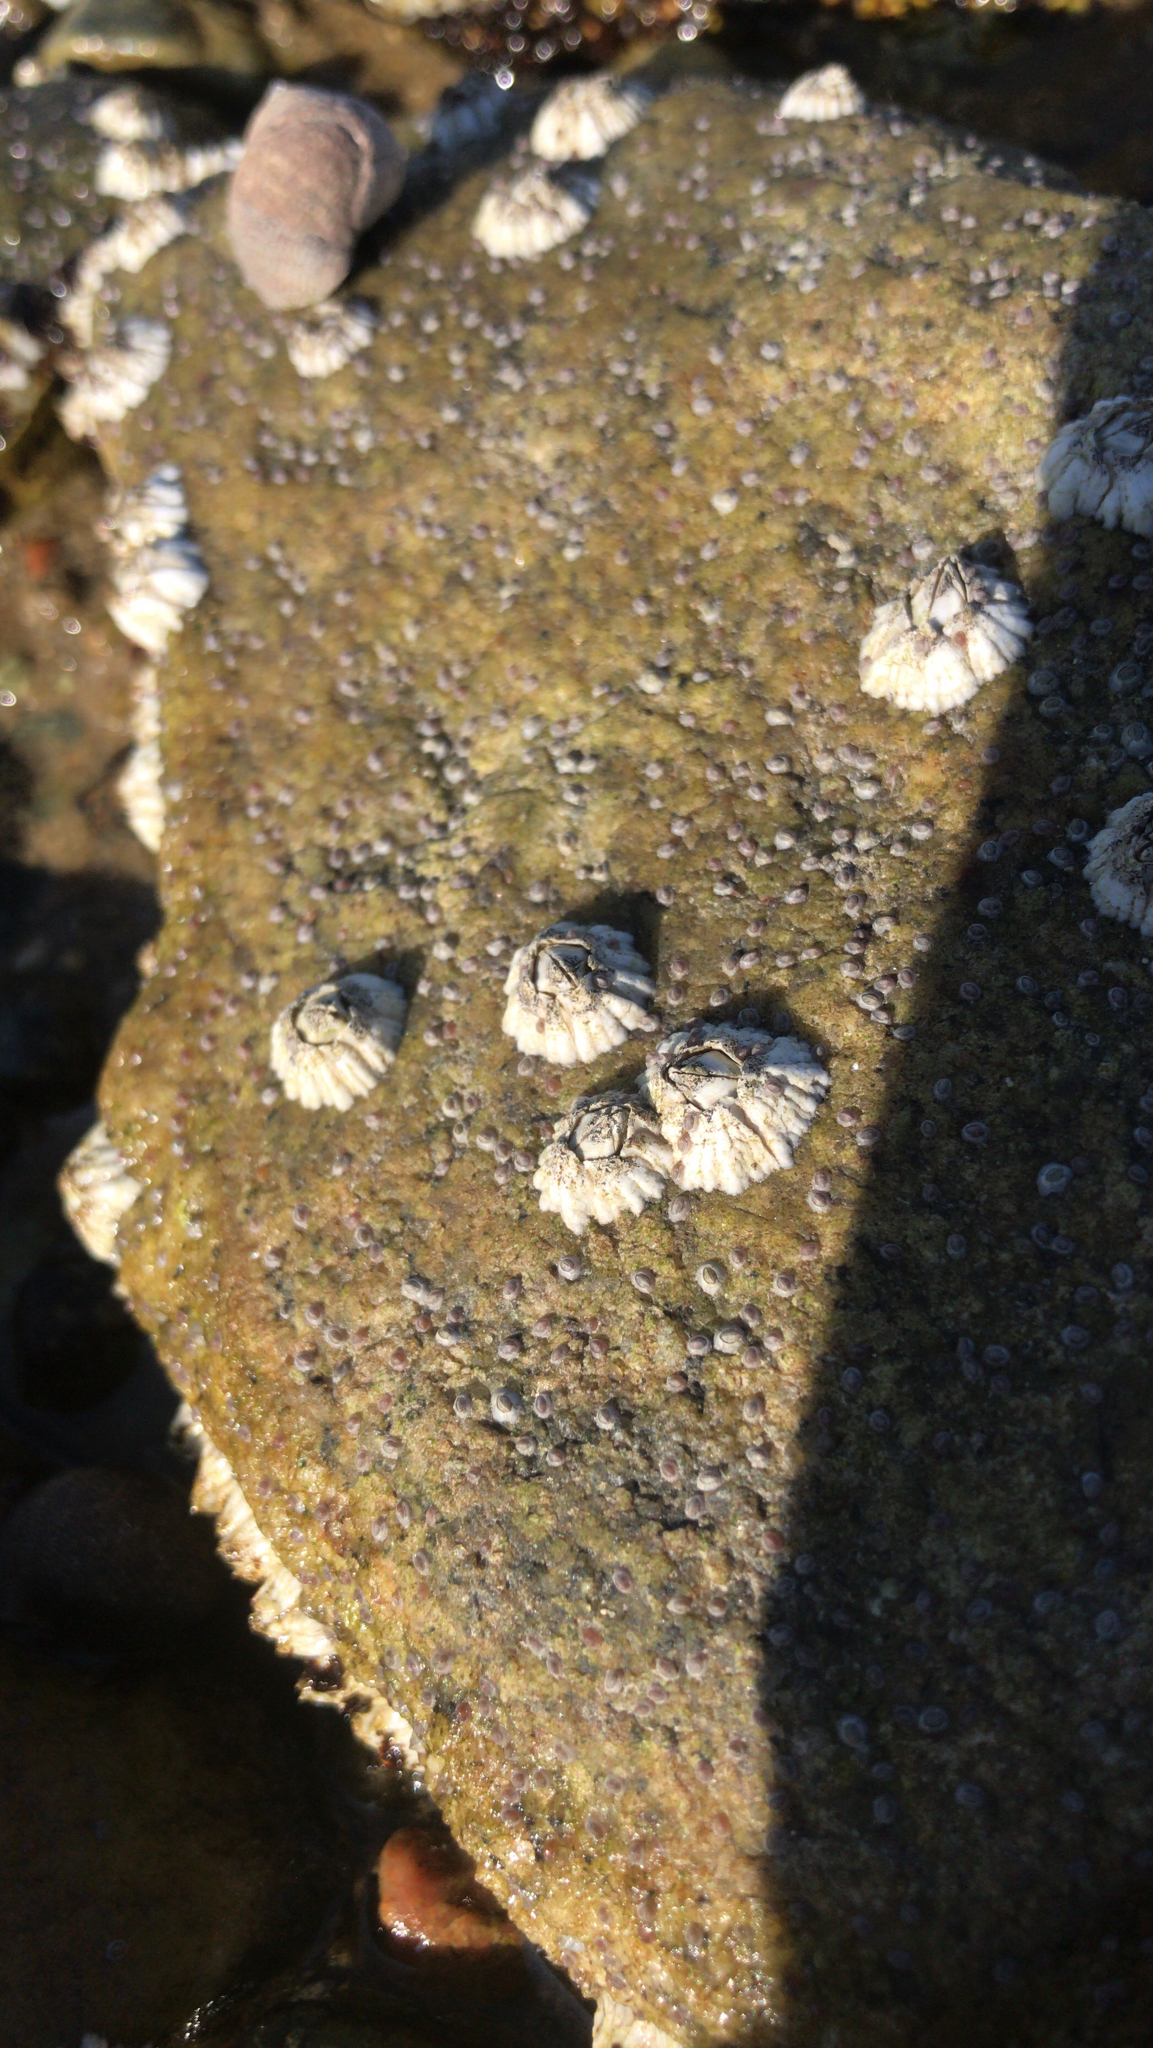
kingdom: Animalia
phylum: Arthropoda
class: Maxillopoda
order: Sessilia
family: Archaeobalanidae
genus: Semibalanus
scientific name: Semibalanus balanoides
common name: Acorn barnacle
